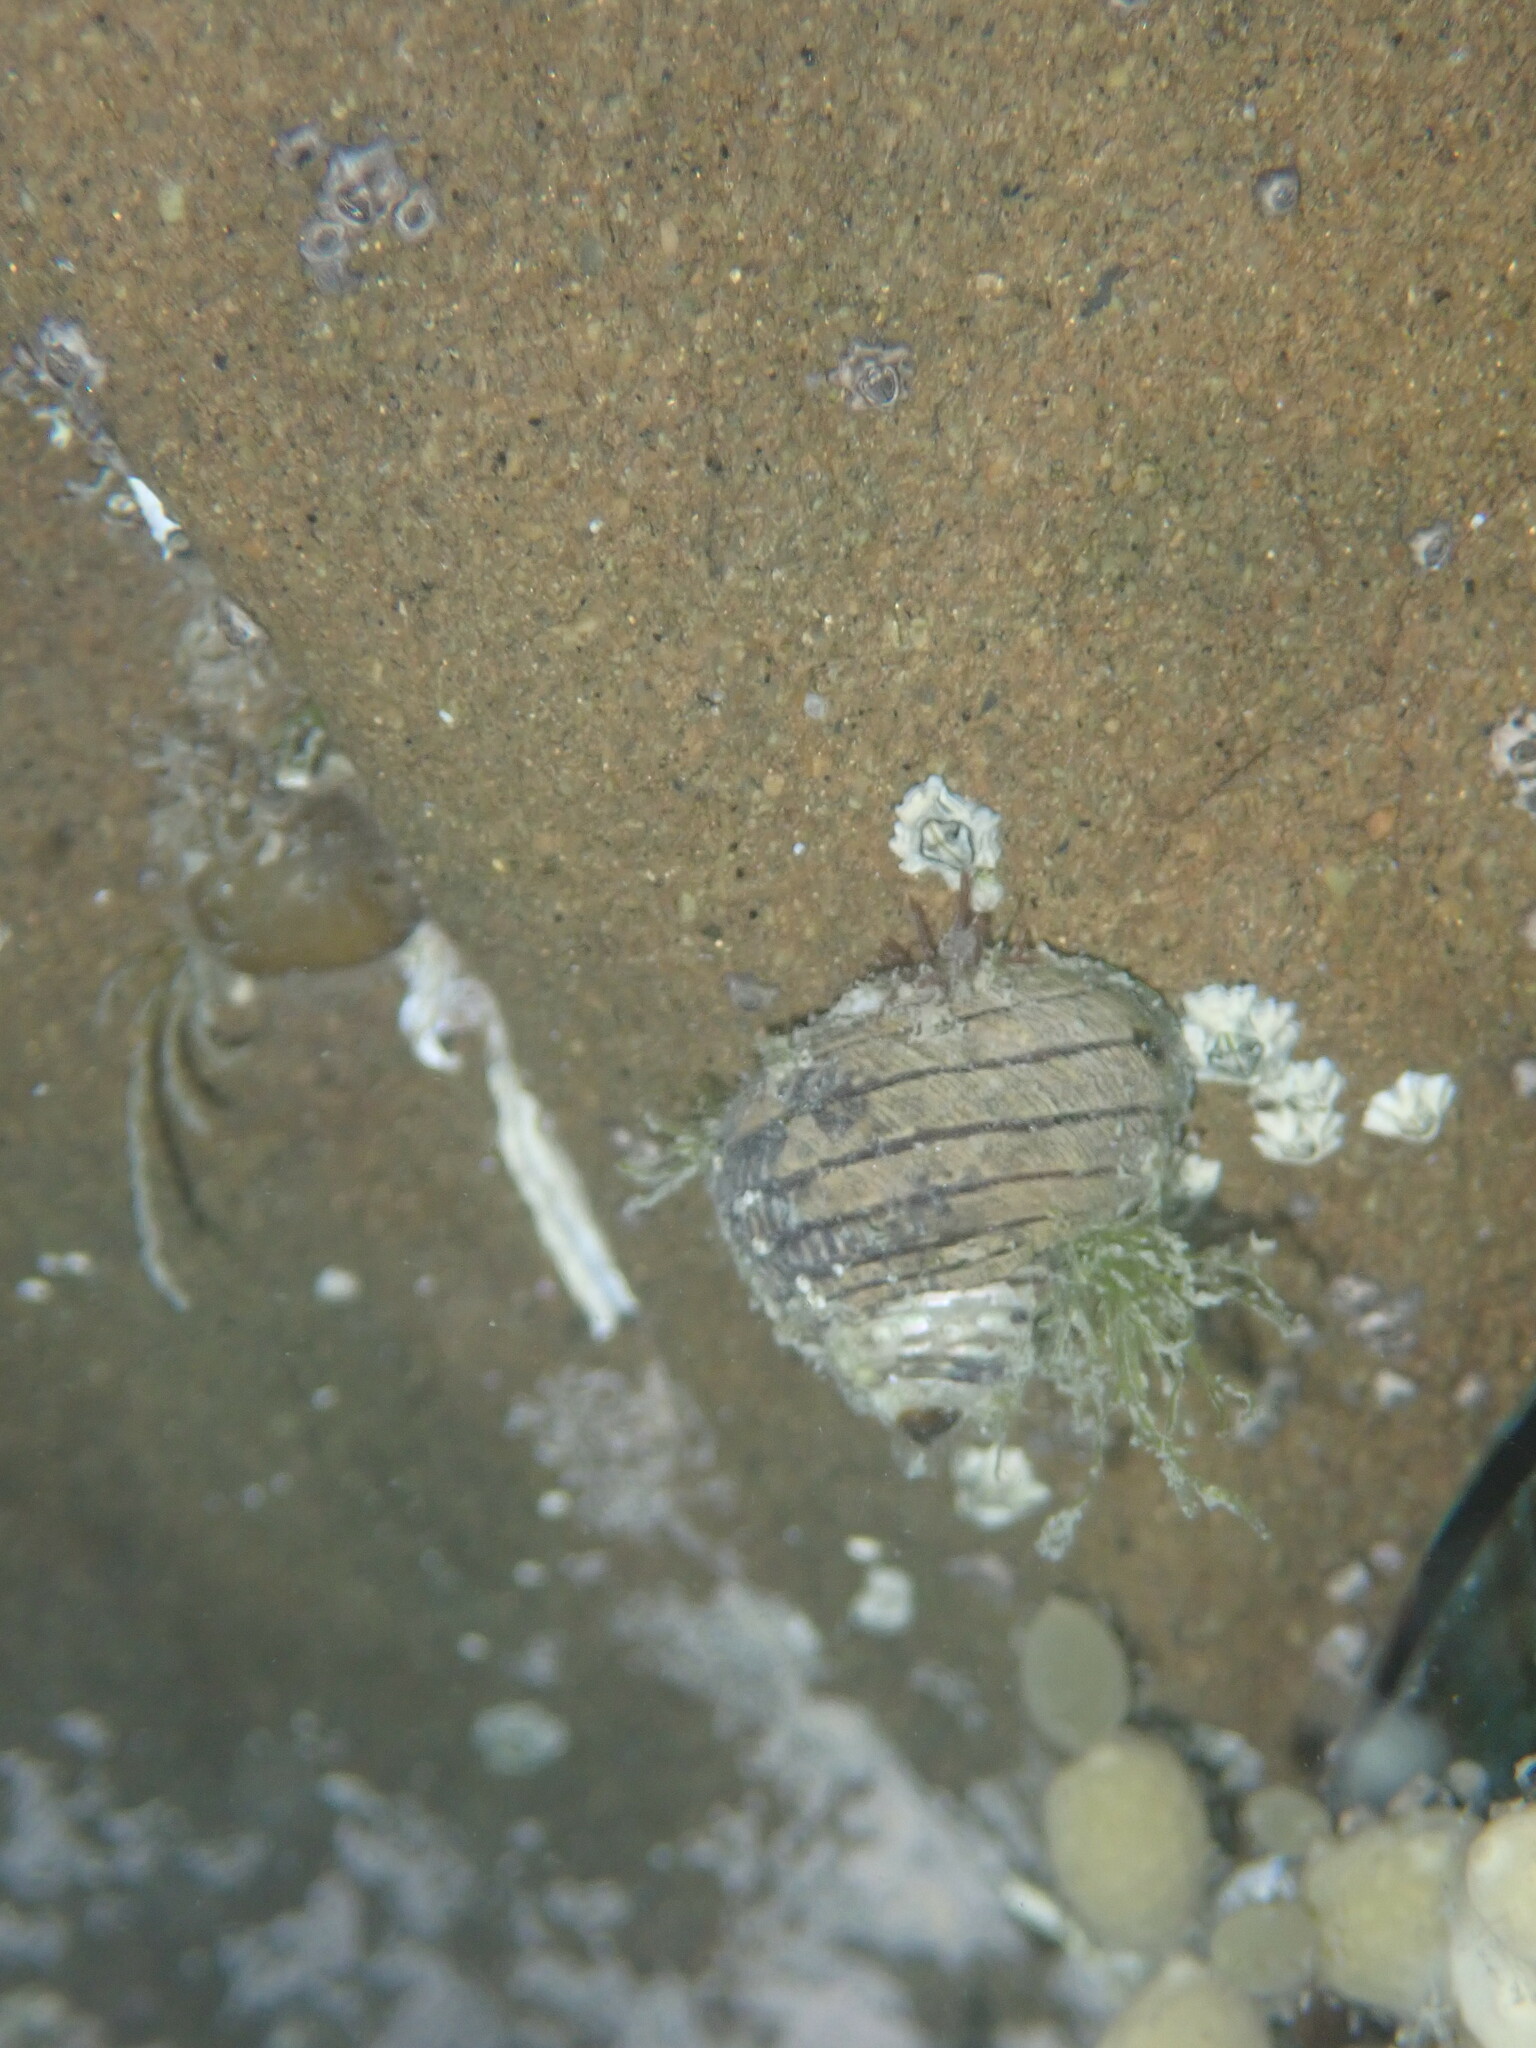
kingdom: Animalia
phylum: Mollusca
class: Gastropoda
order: Trochida
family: Trochidae
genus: Diloma
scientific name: Diloma aethiops
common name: Scorched monodont
